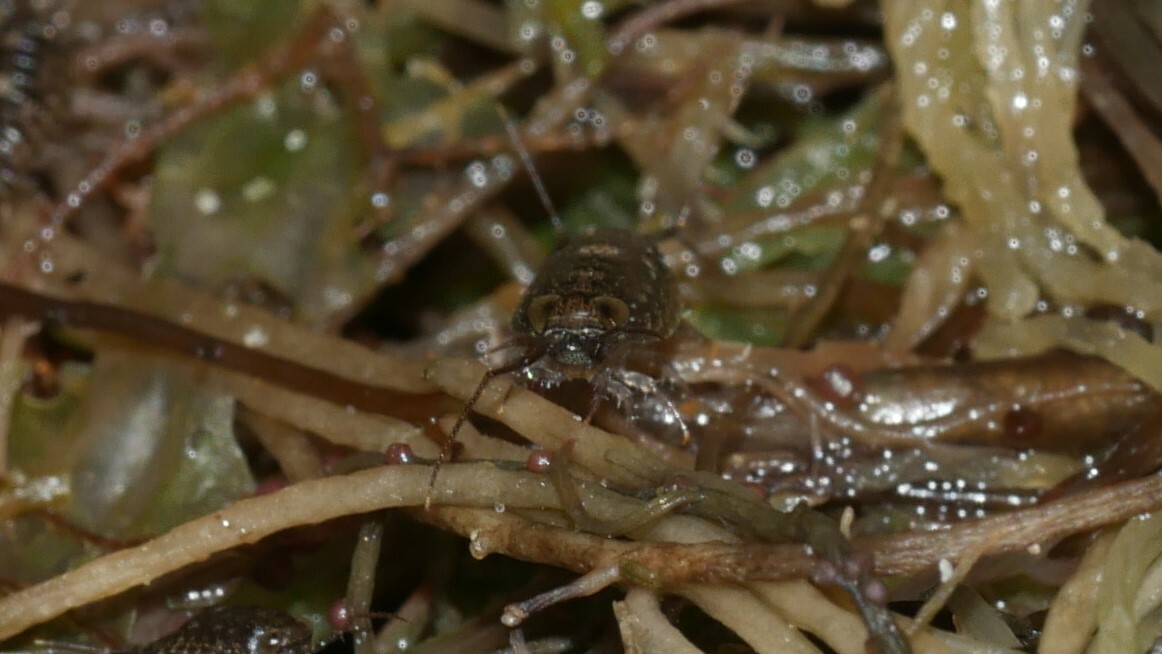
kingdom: Animalia
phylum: Arthropoda
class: Malacostraca
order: Isopoda
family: Ligiidae
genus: Ligia
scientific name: Ligia exotica
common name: Wharf roach
